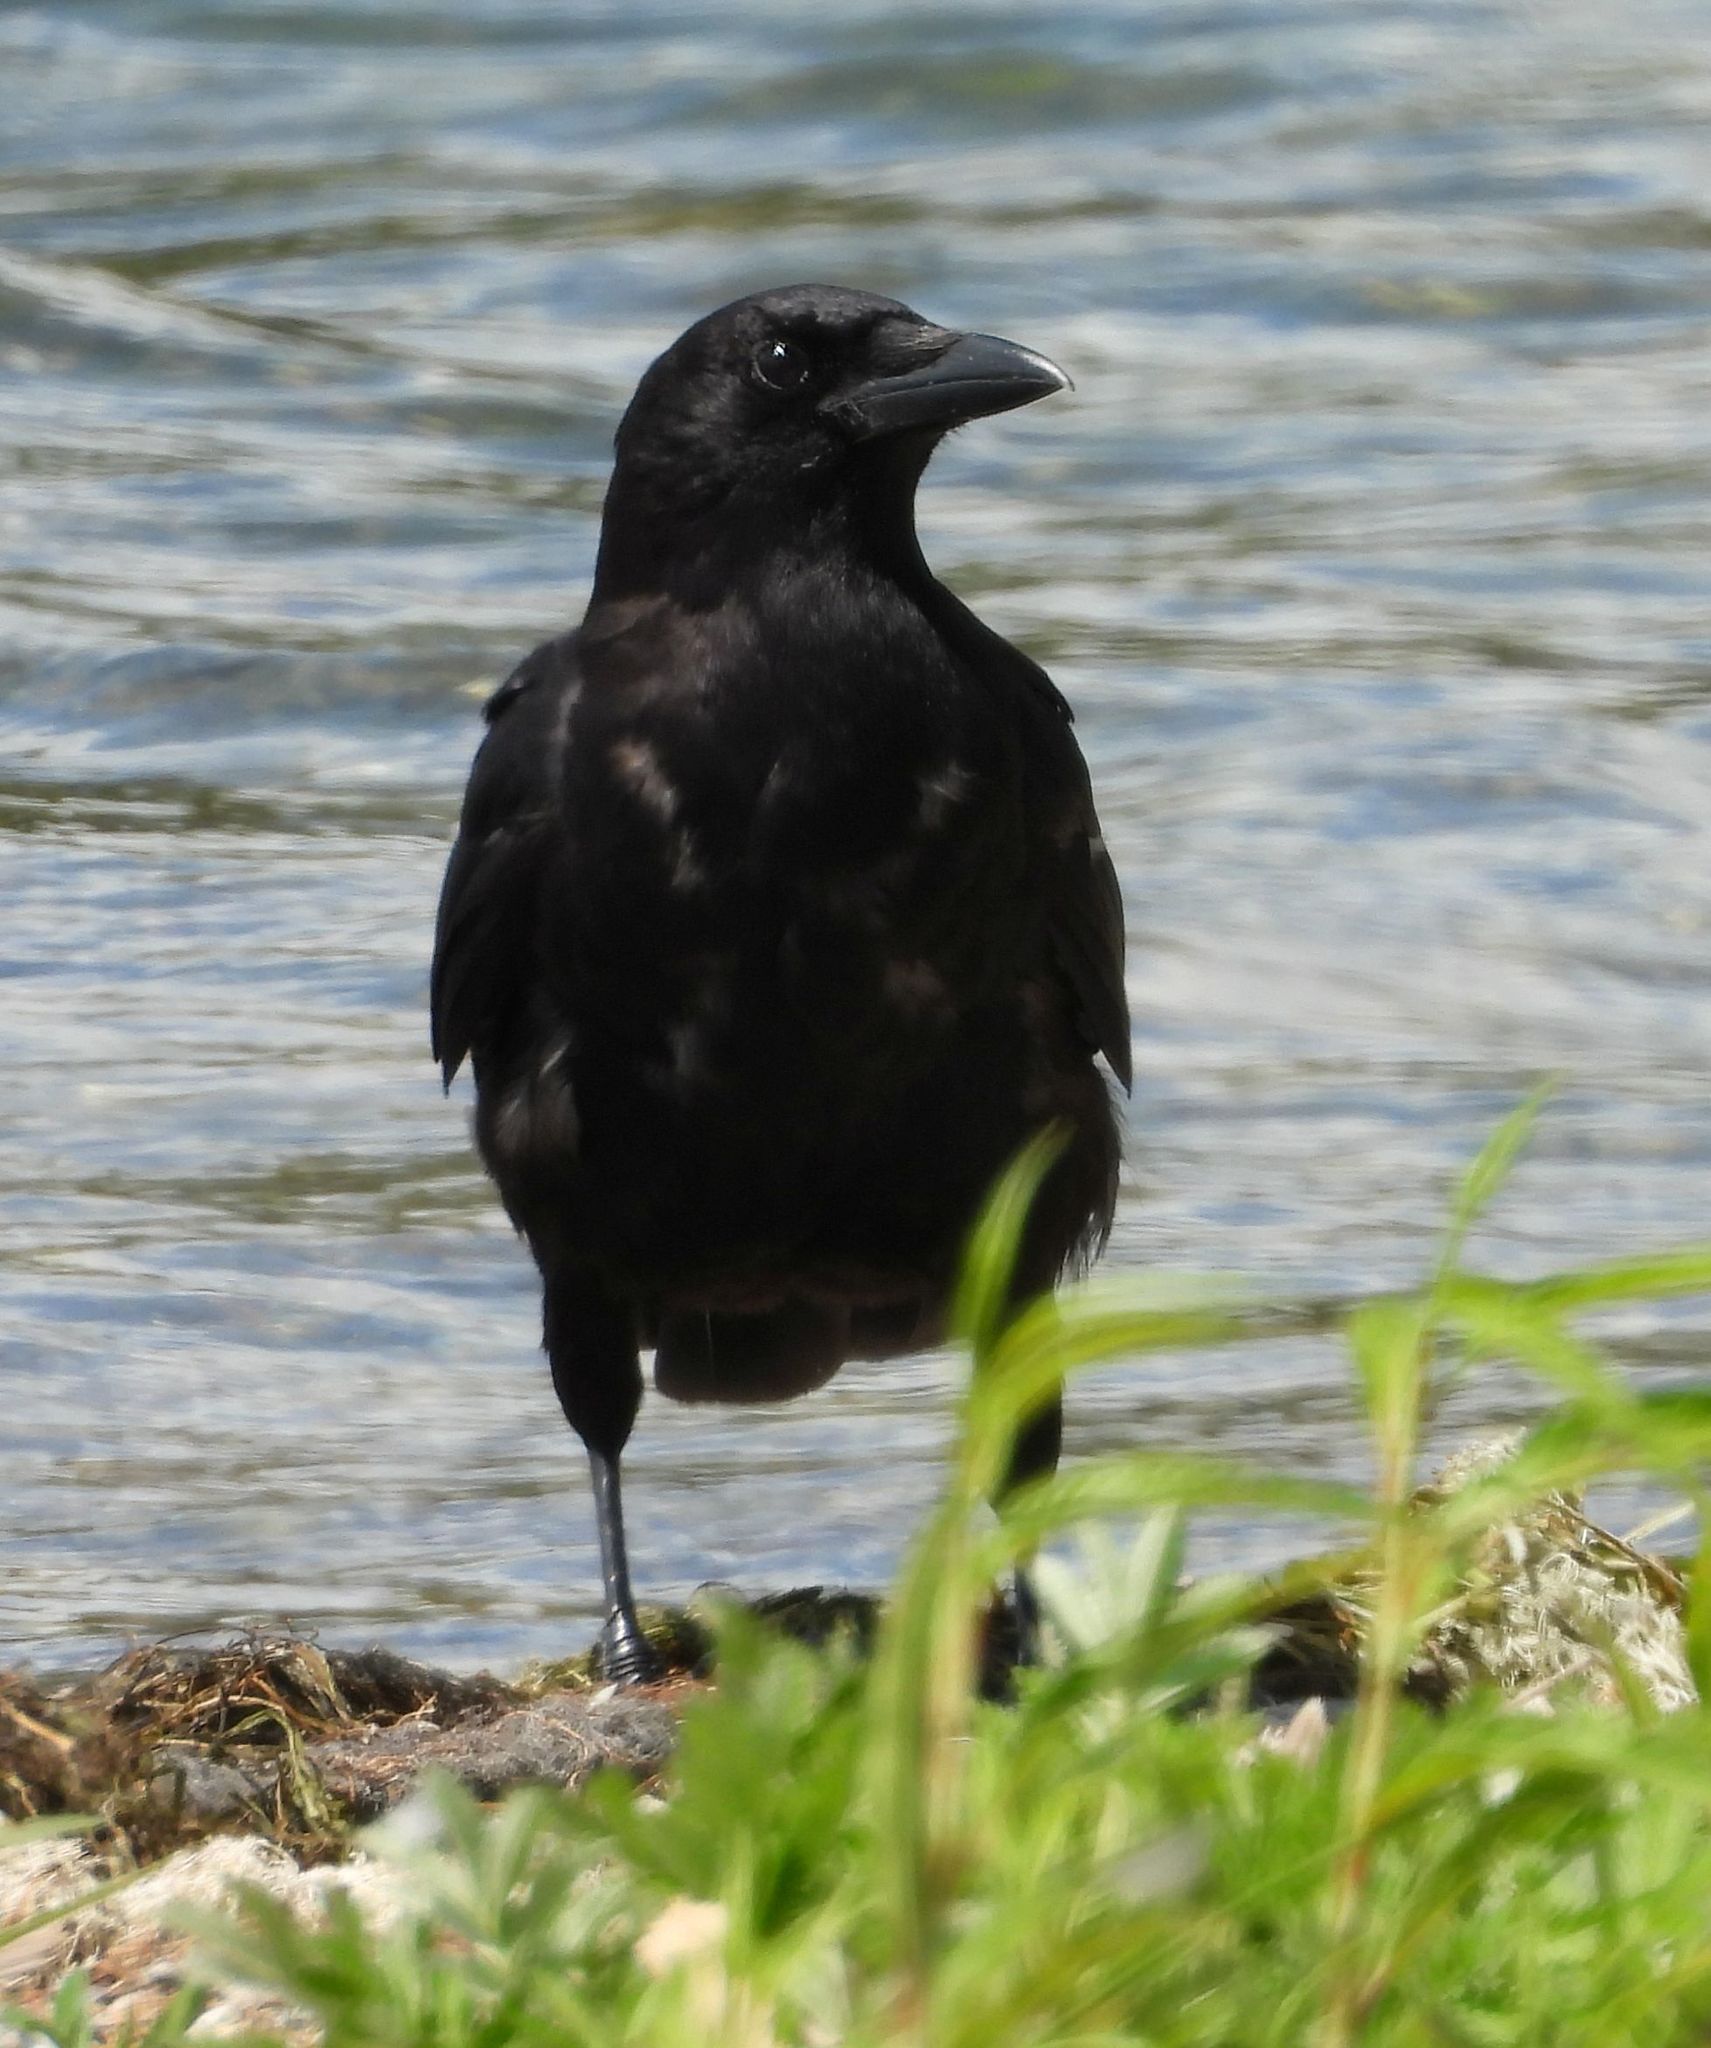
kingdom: Animalia
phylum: Chordata
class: Aves
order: Passeriformes
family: Corvidae
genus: Corvus
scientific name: Corvus brachyrhynchos
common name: American crow
